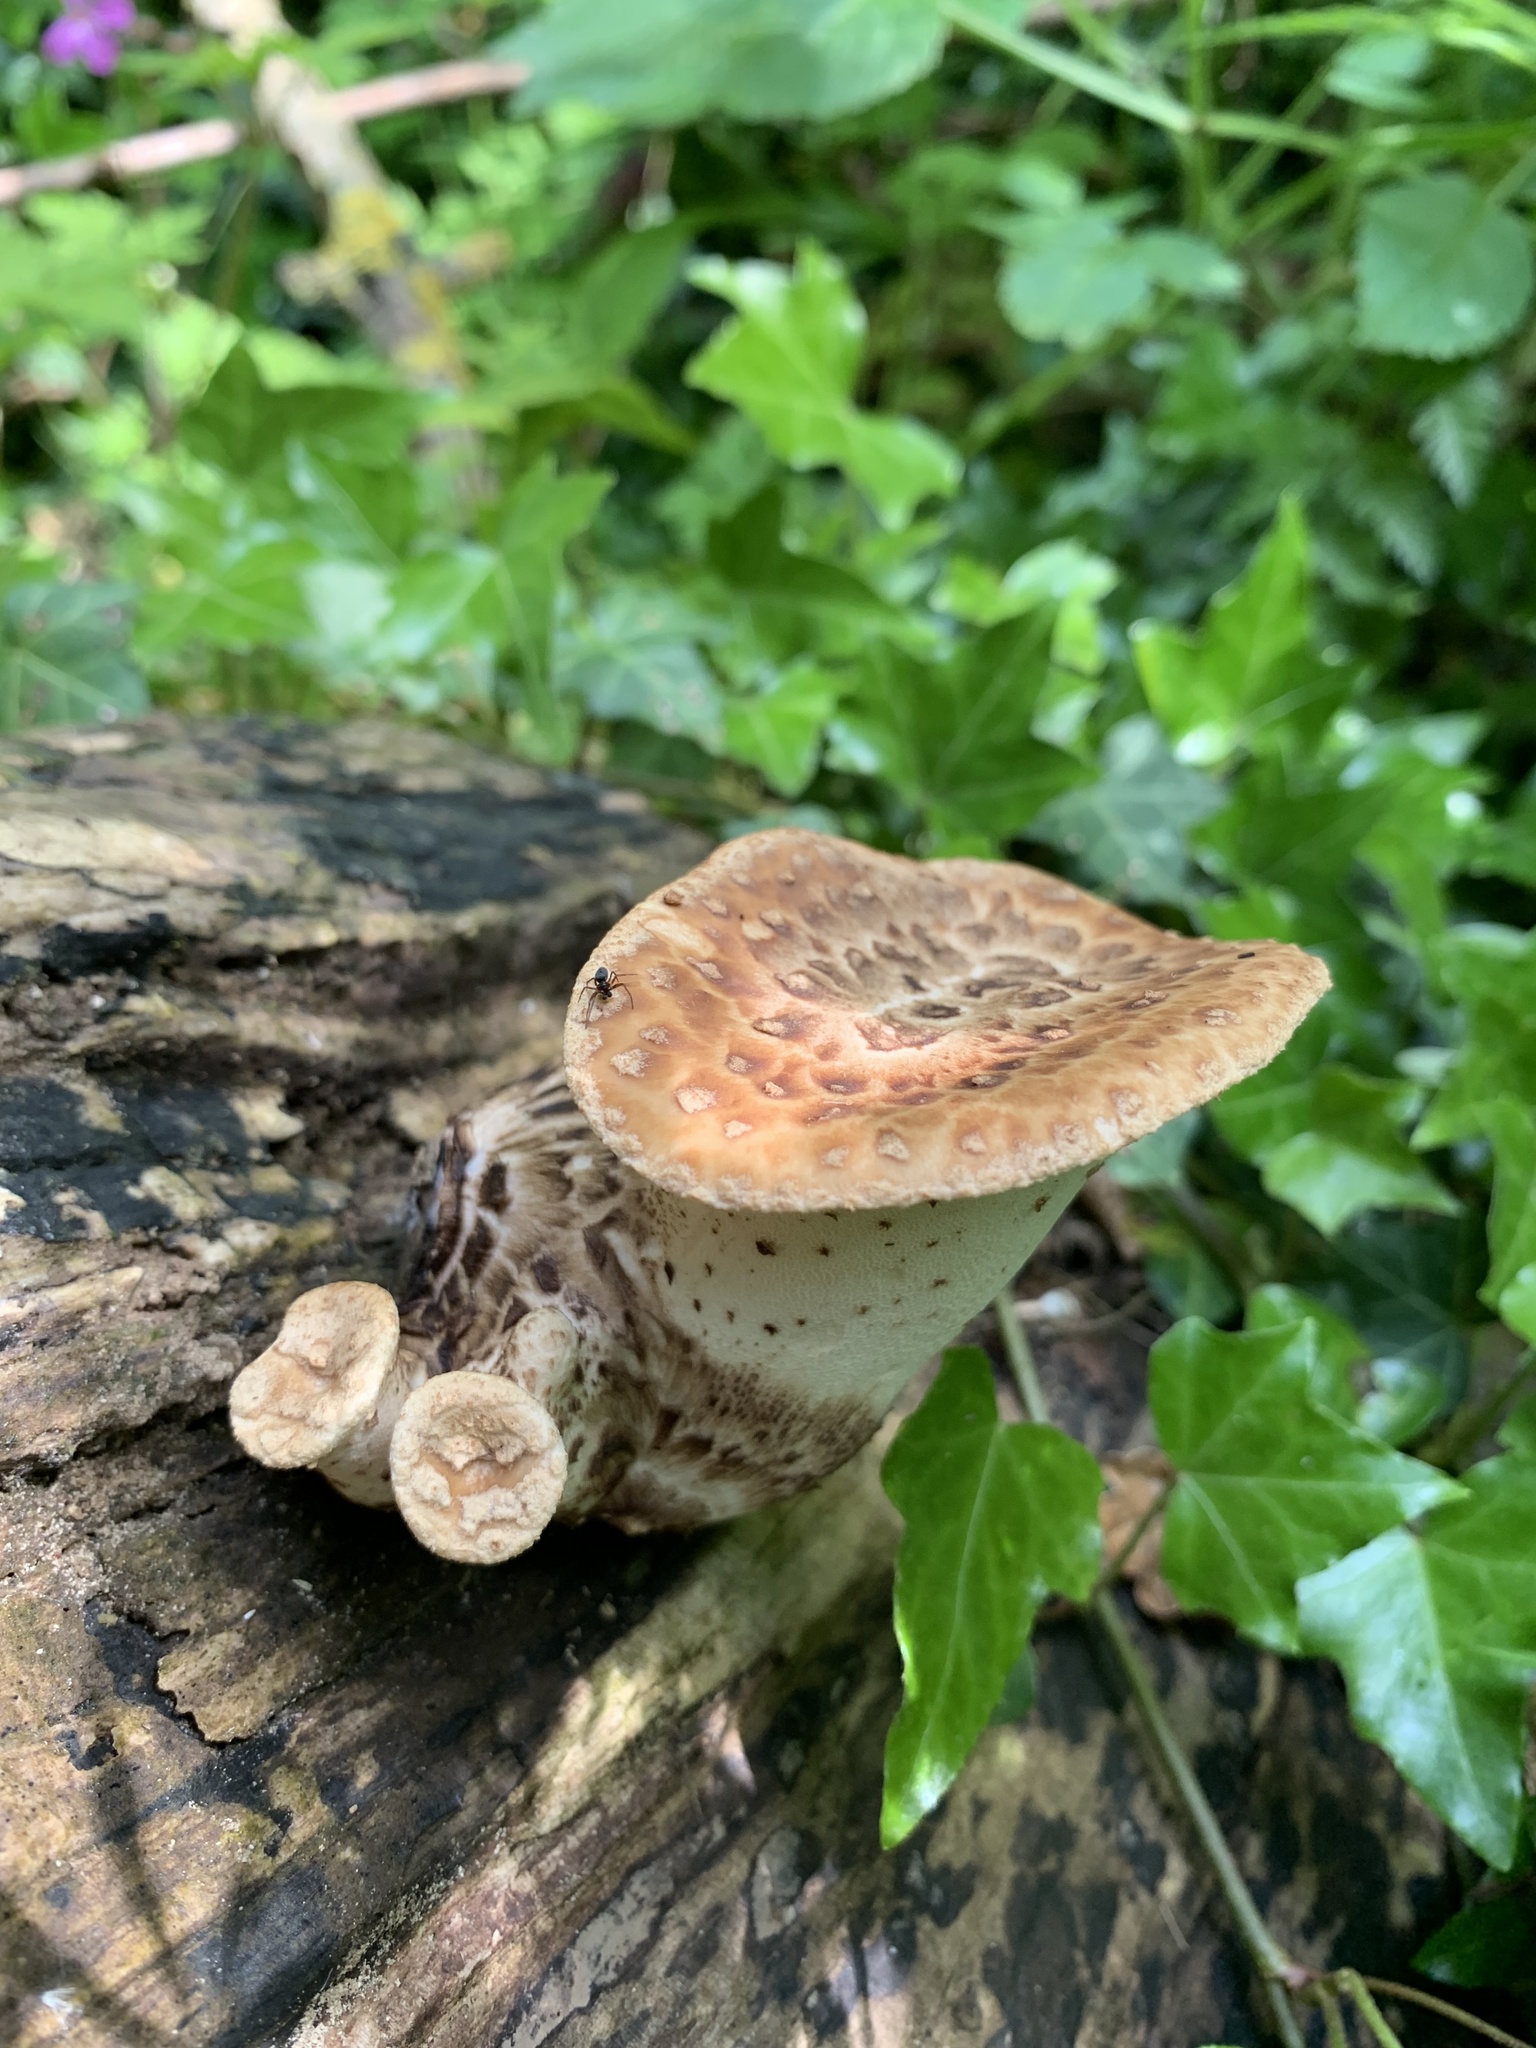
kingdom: Fungi
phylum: Basidiomycota
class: Agaricomycetes
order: Polyporales
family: Polyporaceae
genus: Cerioporus
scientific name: Cerioporus squamosus
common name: Dryad's saddle
